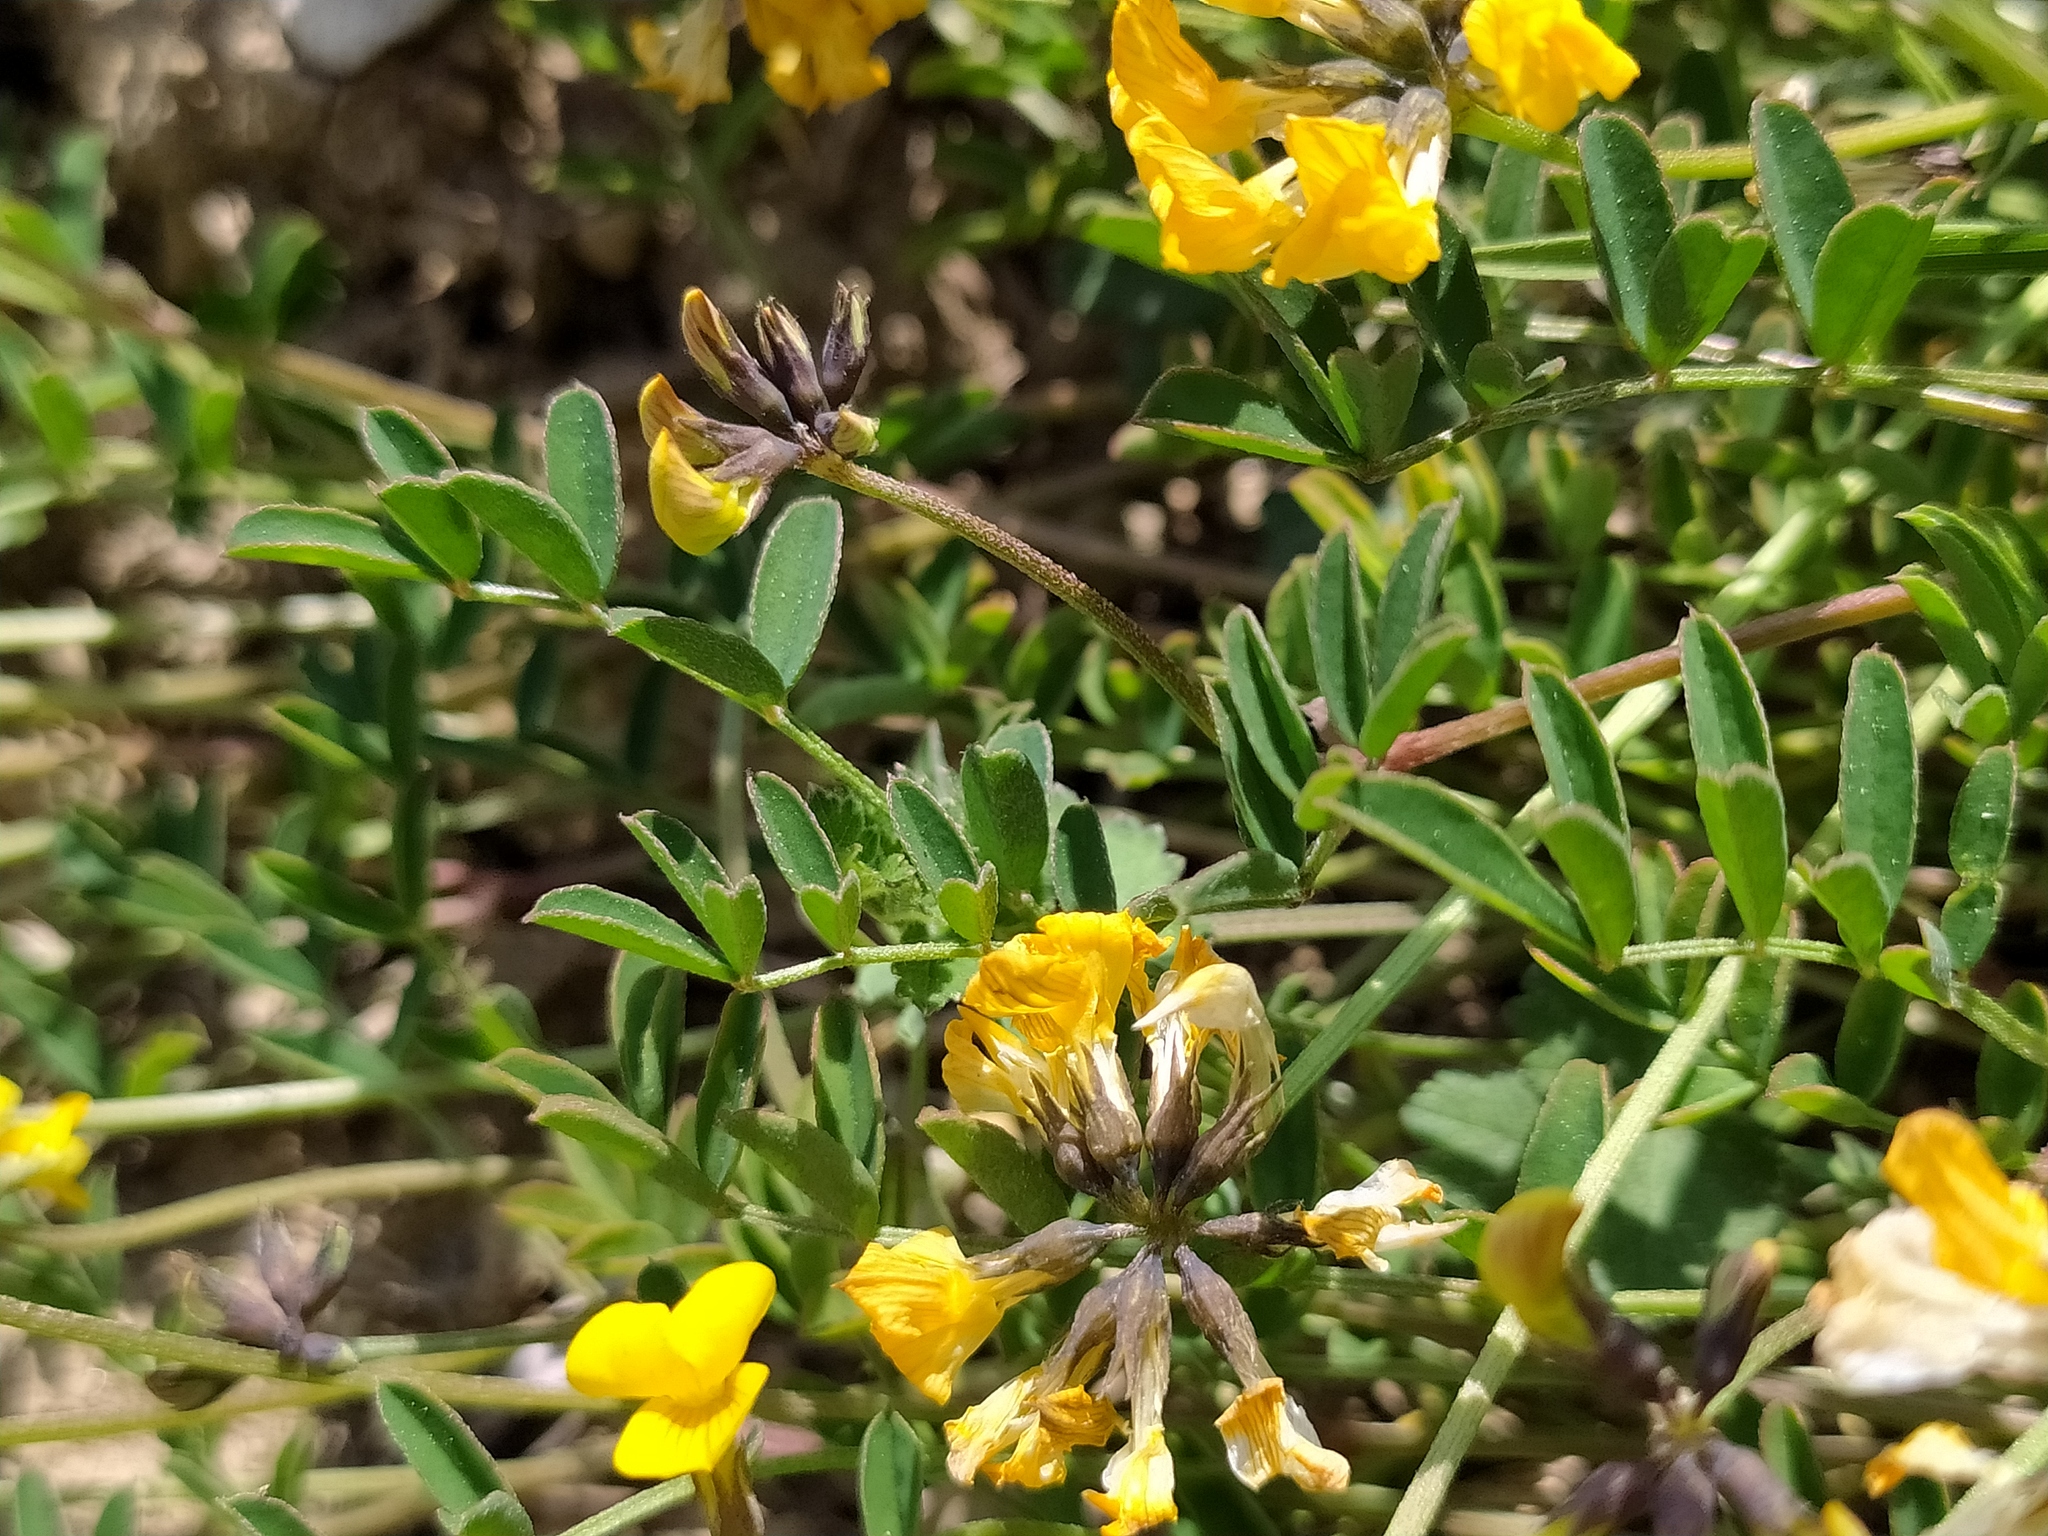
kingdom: Plantae
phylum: Tracheophyta
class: Magnoliopsida
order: Fabales
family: Fabaceae
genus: Hippocrepis
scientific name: Hippocrepis comosa
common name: Horseshoe vetch
